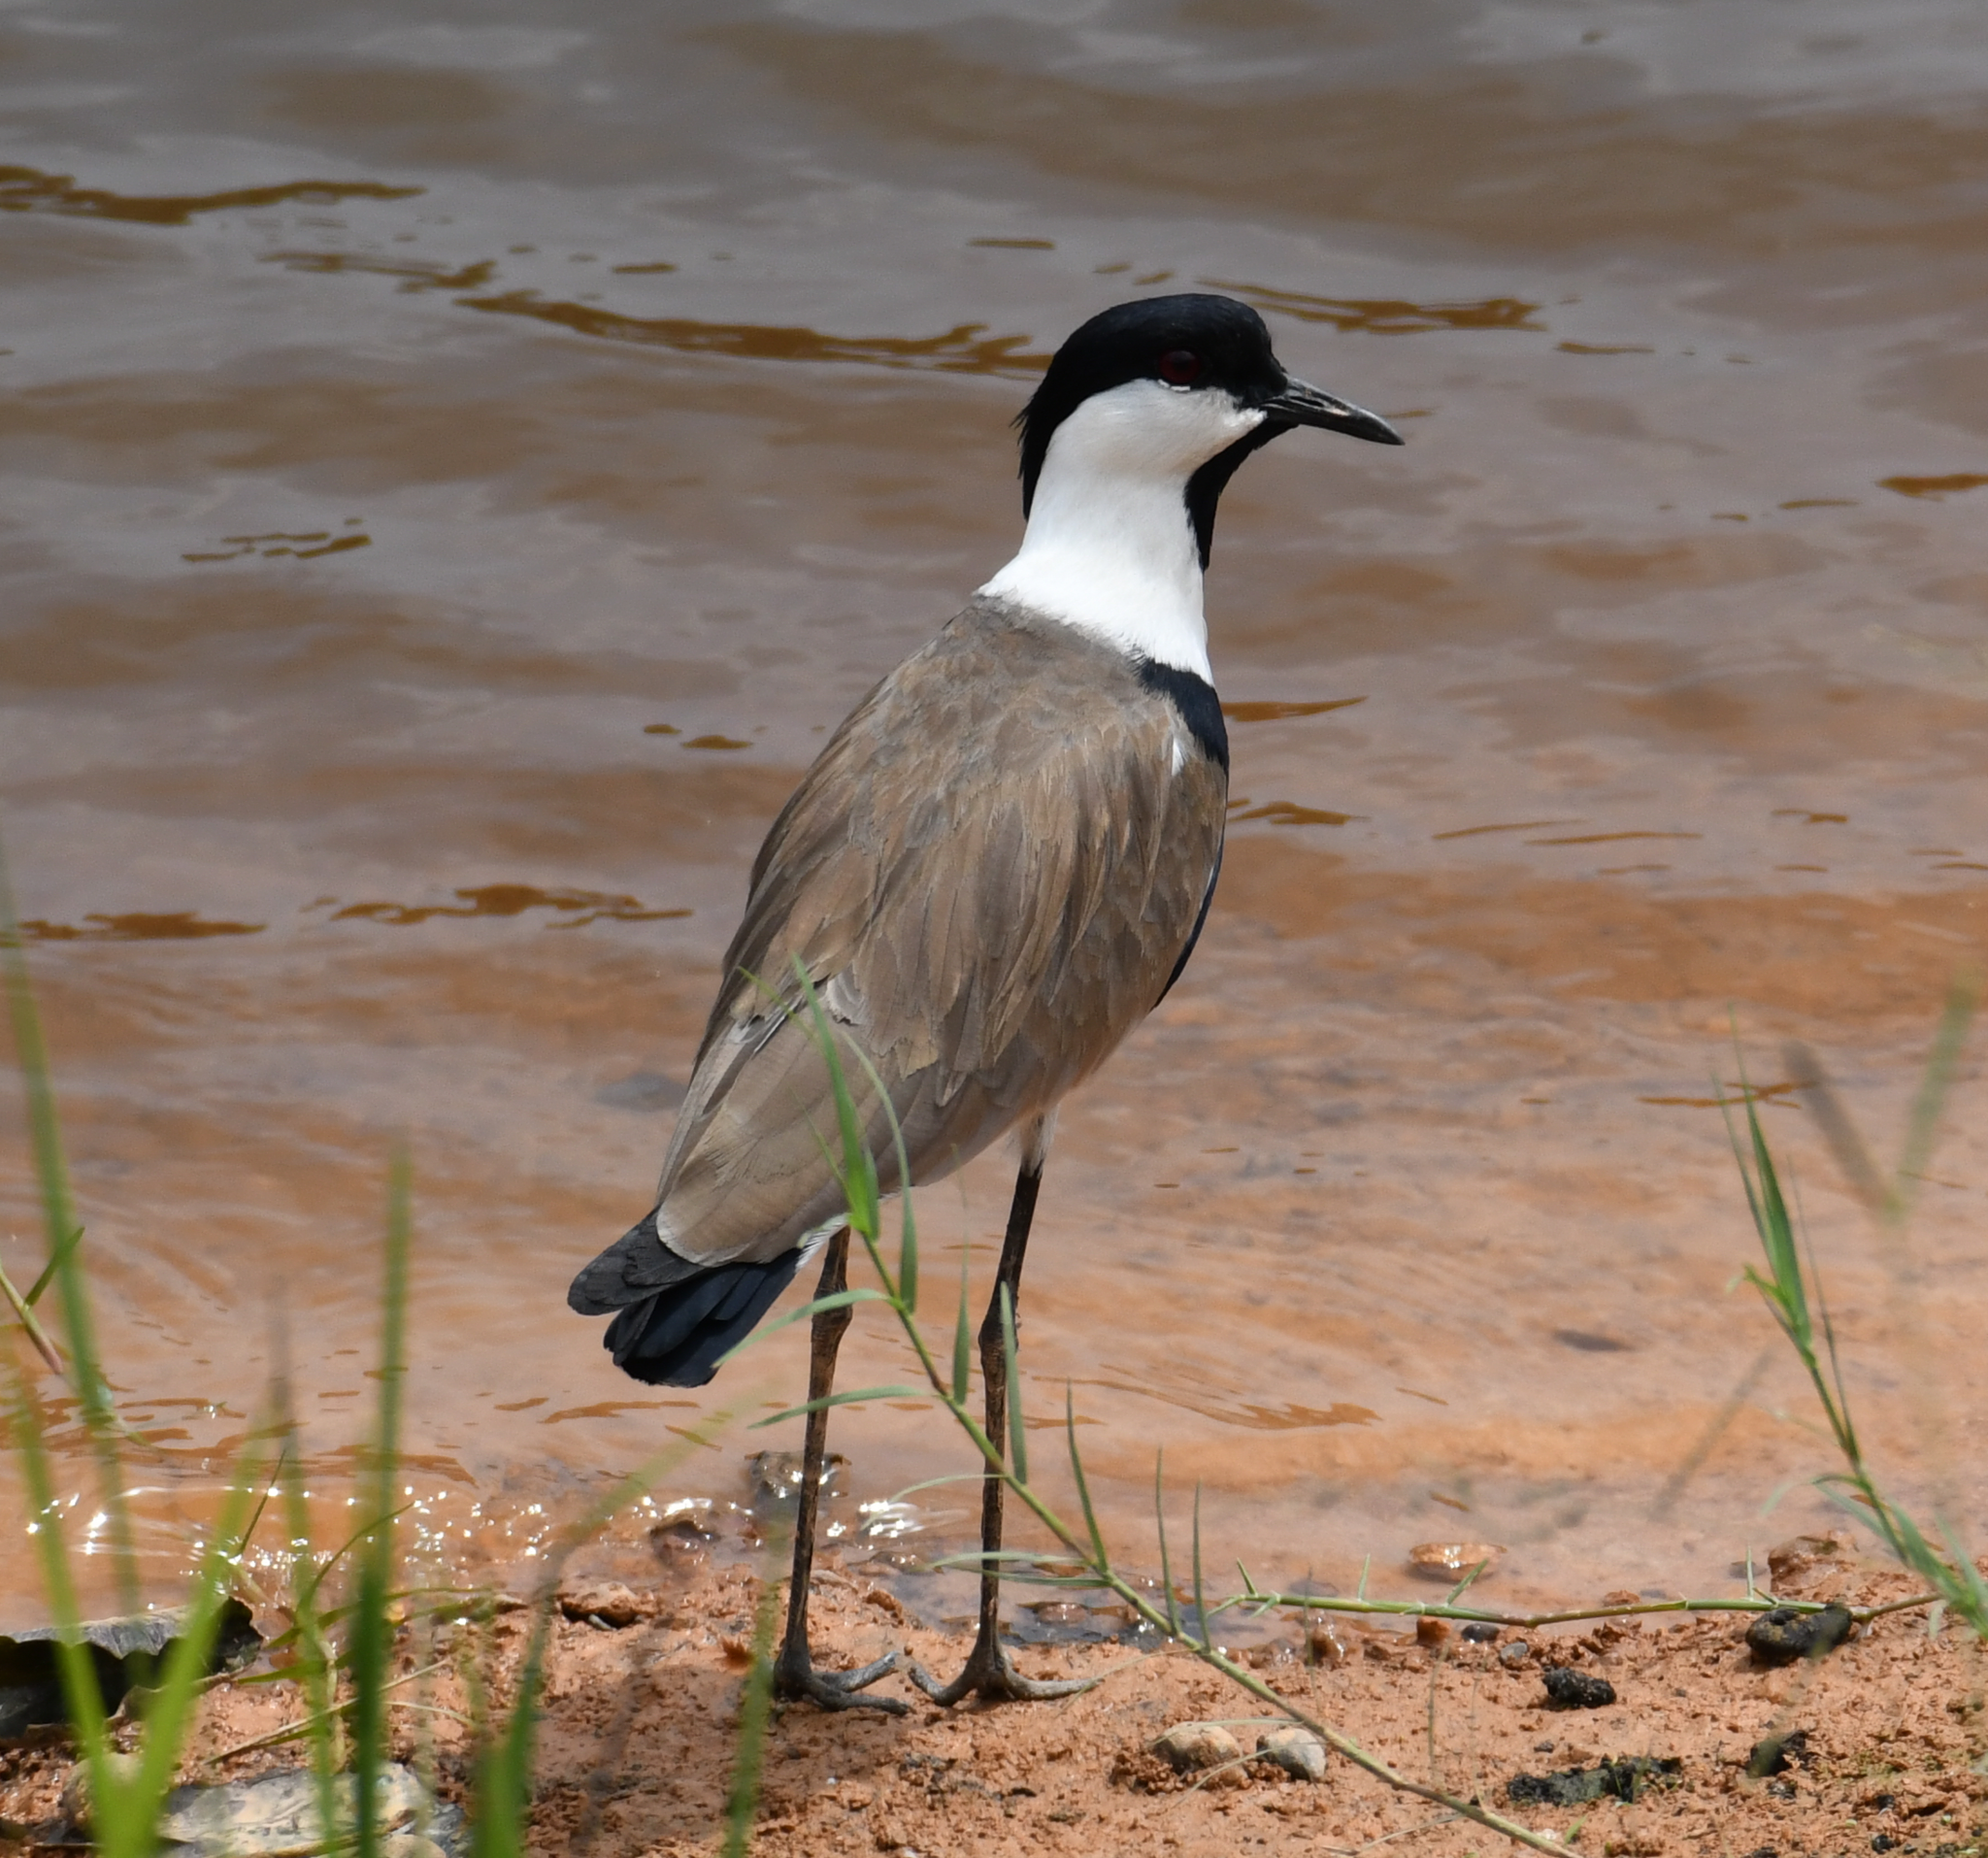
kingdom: Animalia
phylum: Chordata
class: Aves
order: Charadriiformes
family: Charadriidae
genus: Vanellus
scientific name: Vanellus spinosus
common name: Spur-winged lapwing
